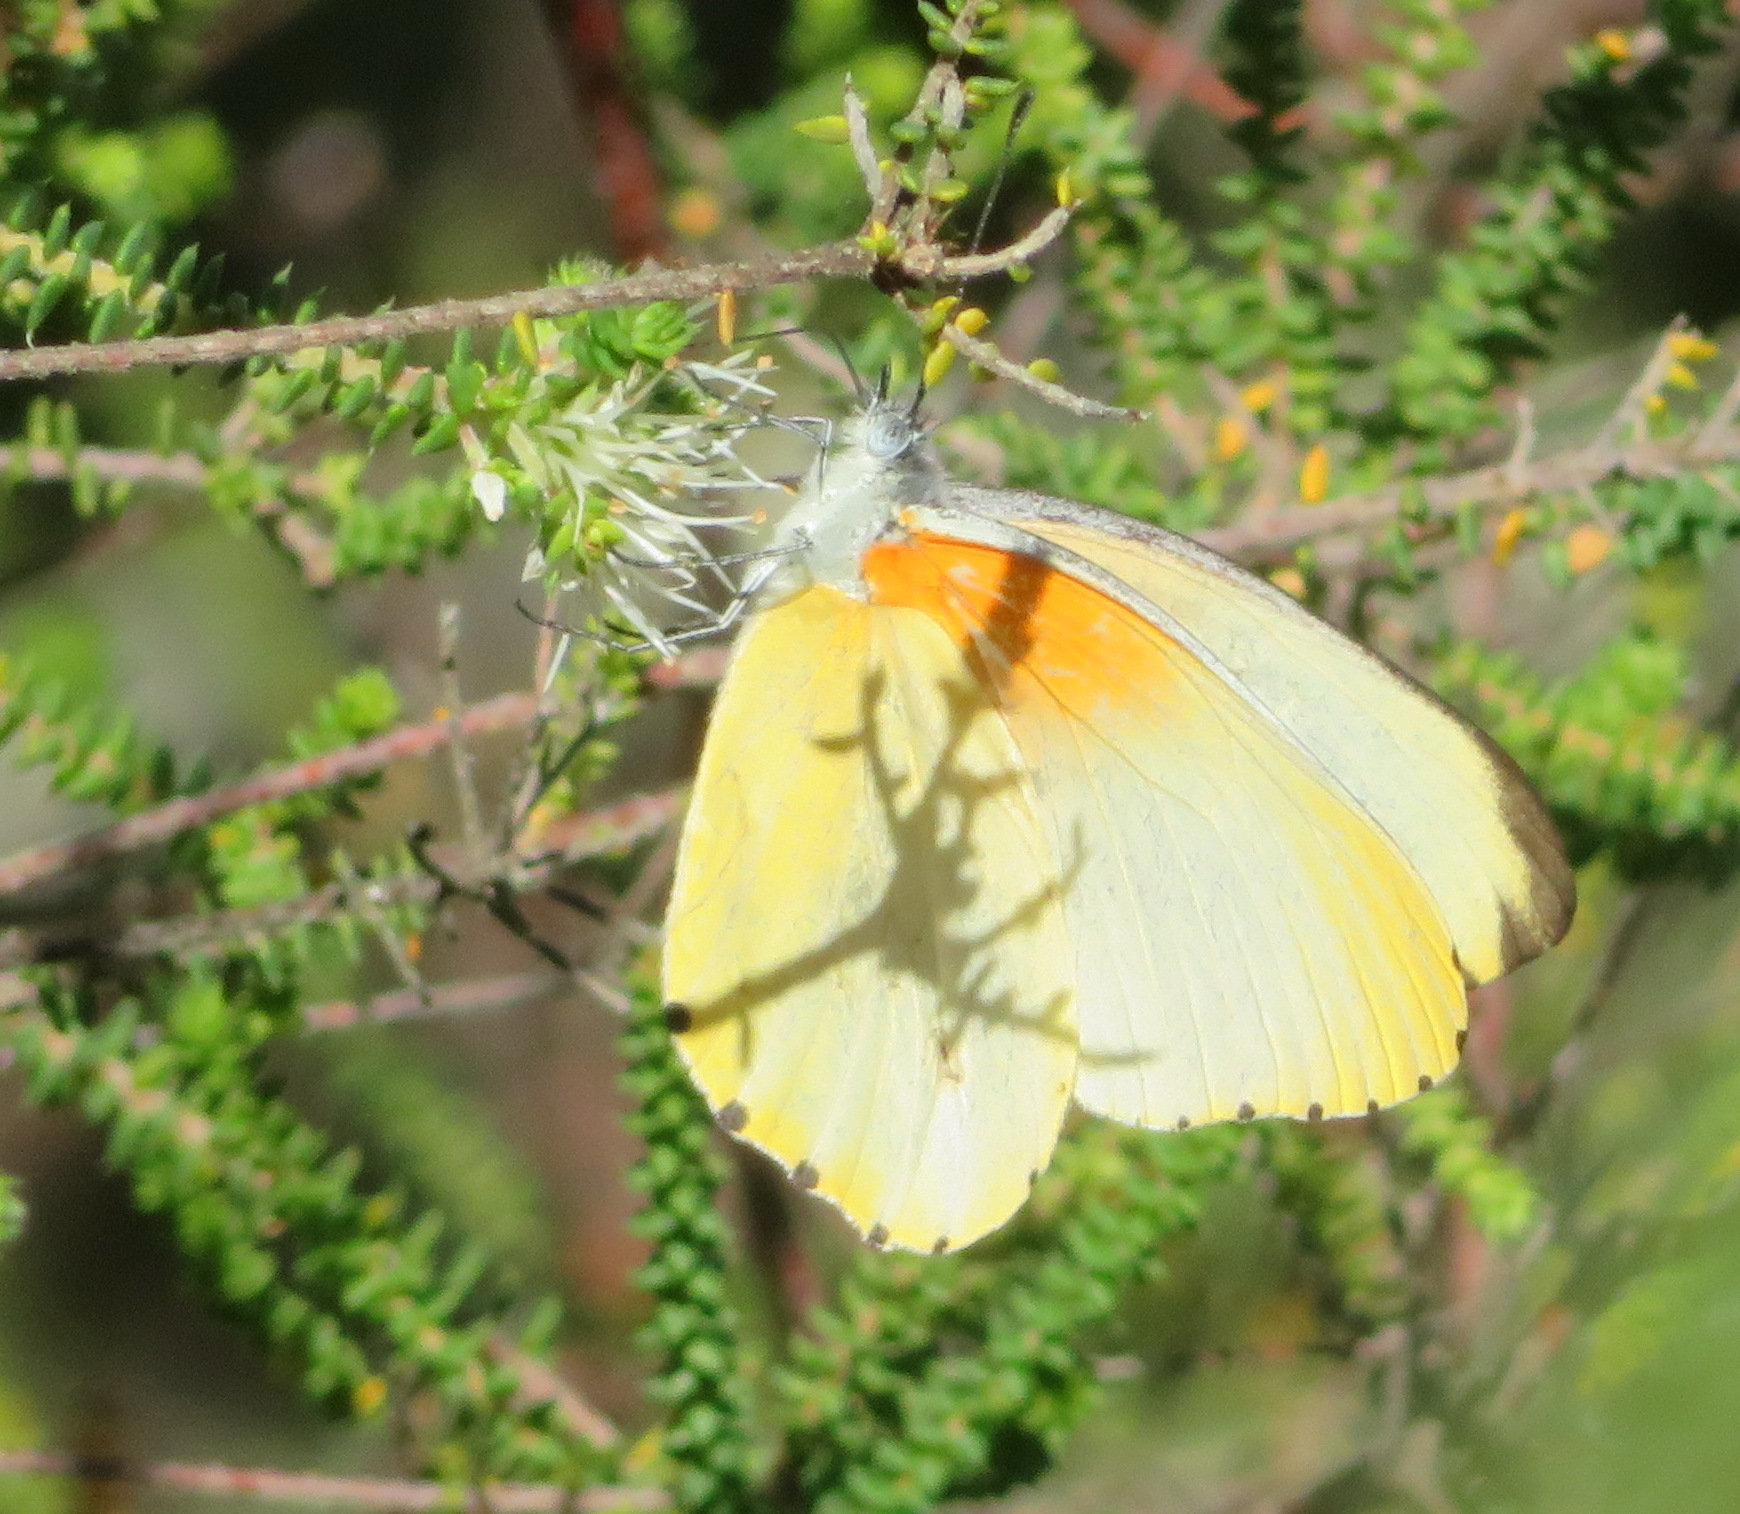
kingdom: Animalia
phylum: Arthropoda
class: Insecta
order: Lepidoptera
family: Pieridae
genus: Mylothris
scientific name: Mylothris agathina
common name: Eastern dotted border
